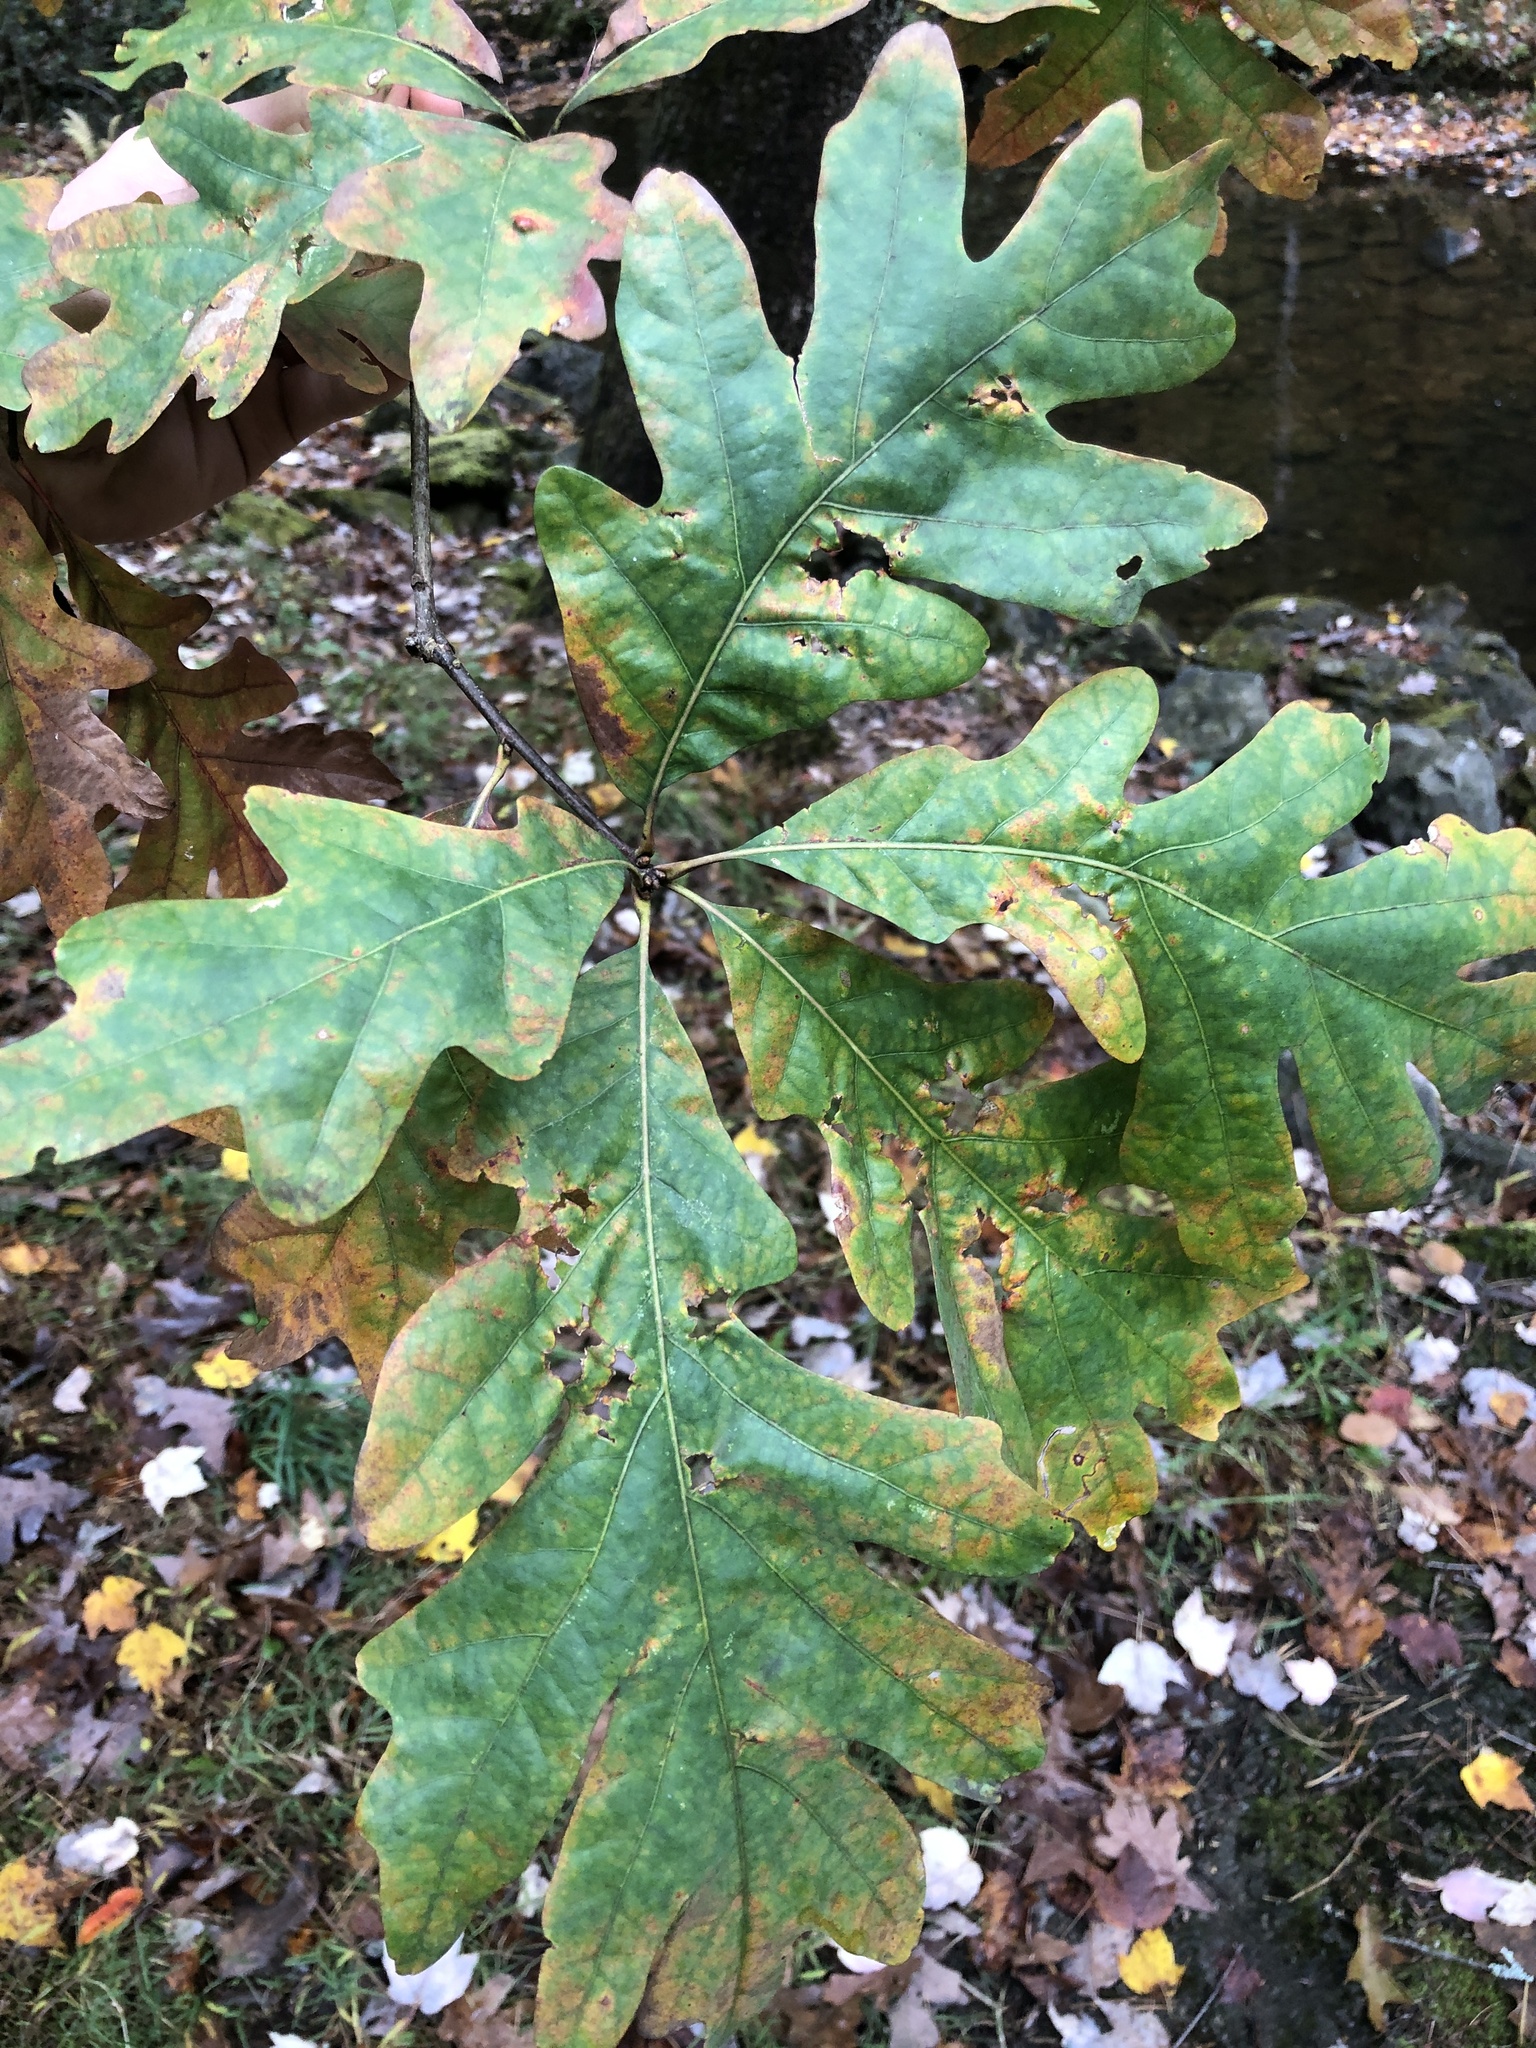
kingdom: Plantae
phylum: Tracheophyta
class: Magnoliopsida
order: Fagales
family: Fagaceae
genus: Quercus
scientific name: Quercus alba
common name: White oak
